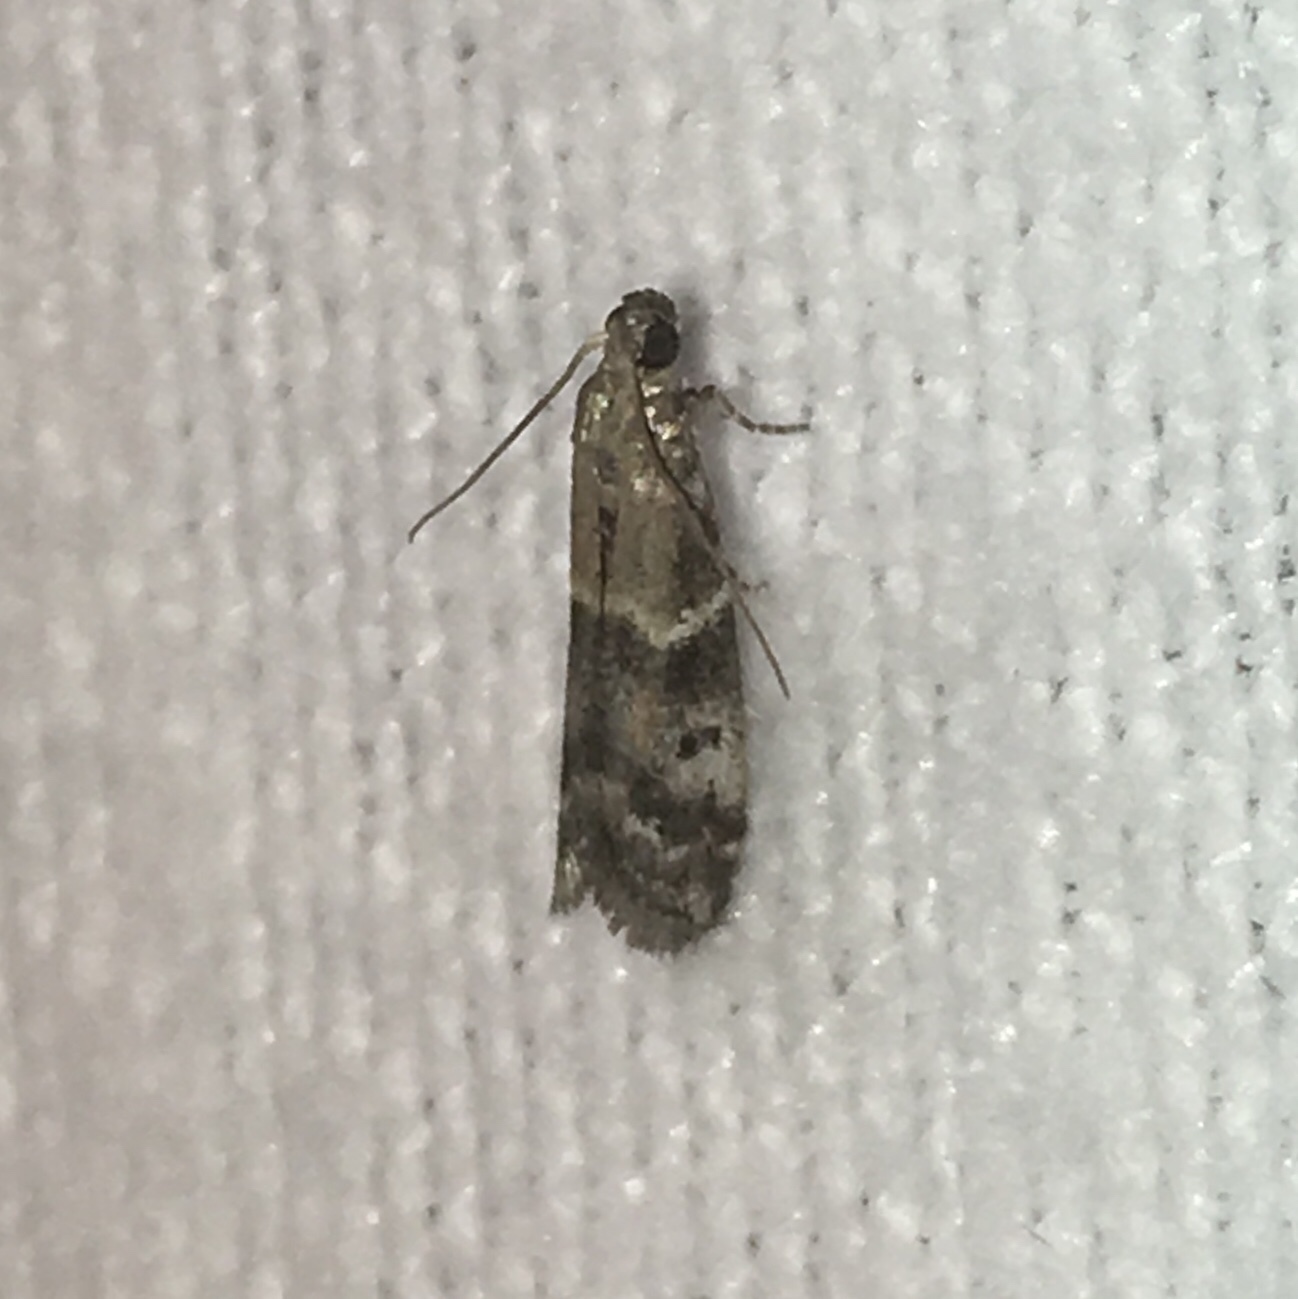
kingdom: Animalia
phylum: Arthropoda
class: Insecta
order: Lepidoptera
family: Pyralidae
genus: Vitula
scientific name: Vitula broweri
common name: Brower's vitula moth
